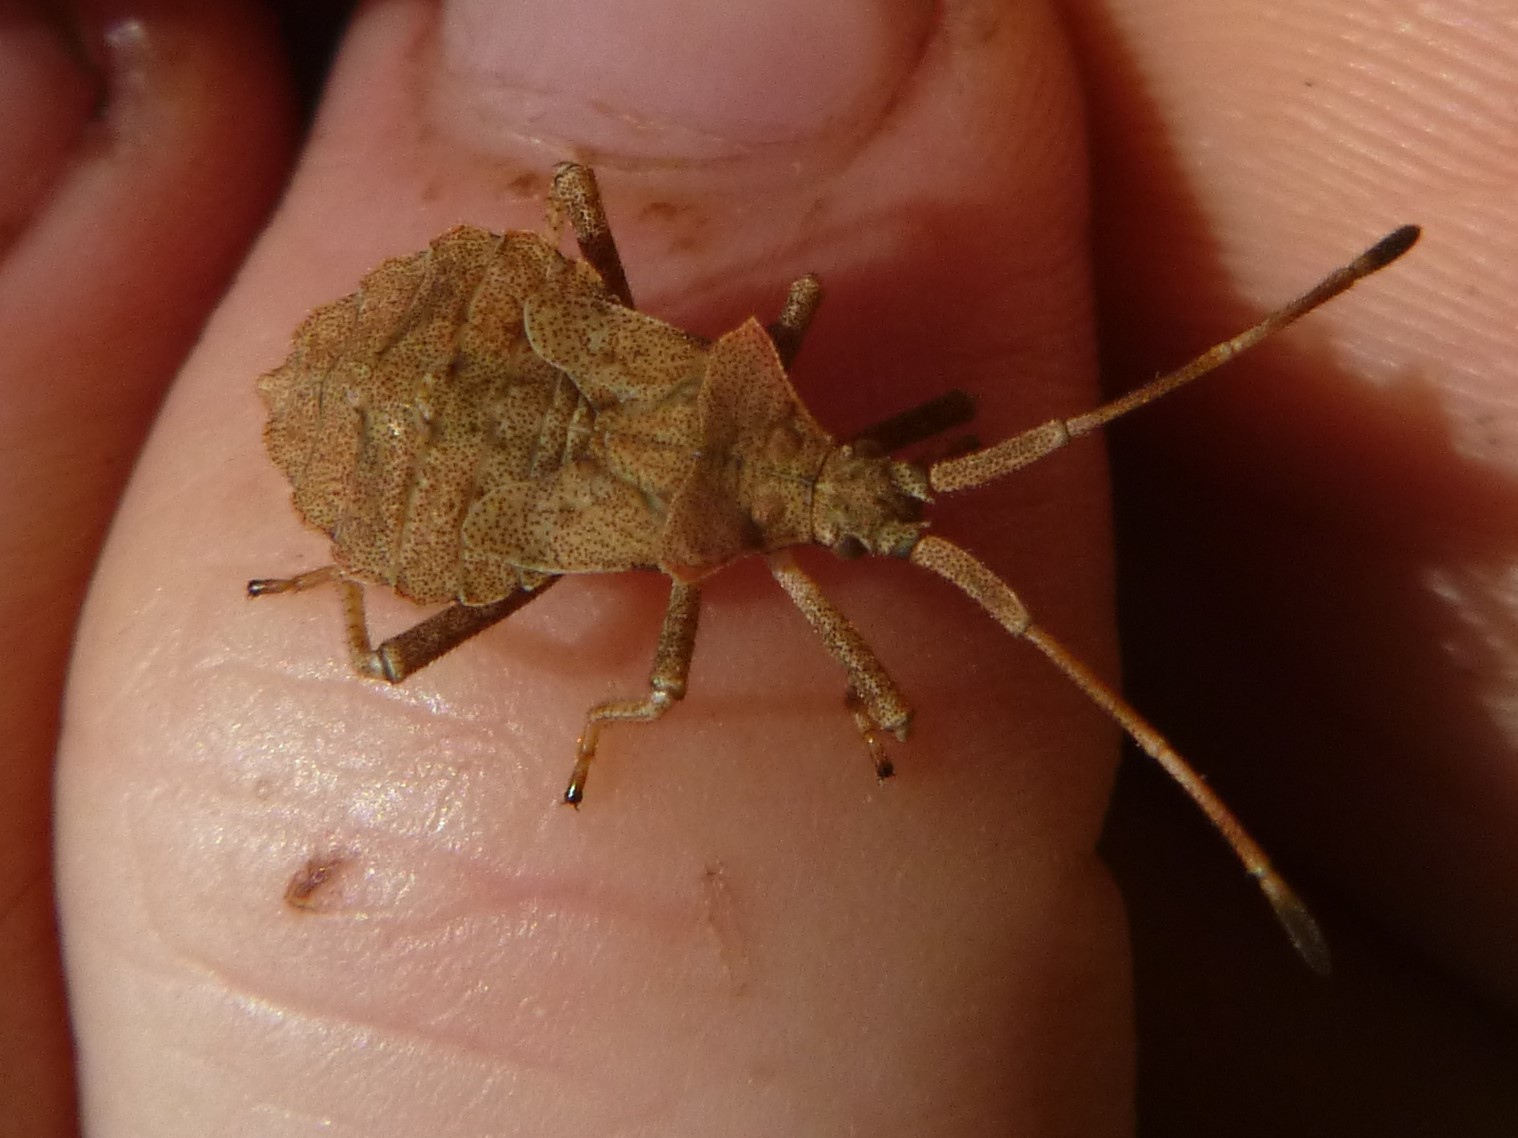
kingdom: Animalia
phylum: Arthropoda
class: Insecta
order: Hemiptera
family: Coreidae
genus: Coreus
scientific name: Coreus marginatus
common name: Dock bug
